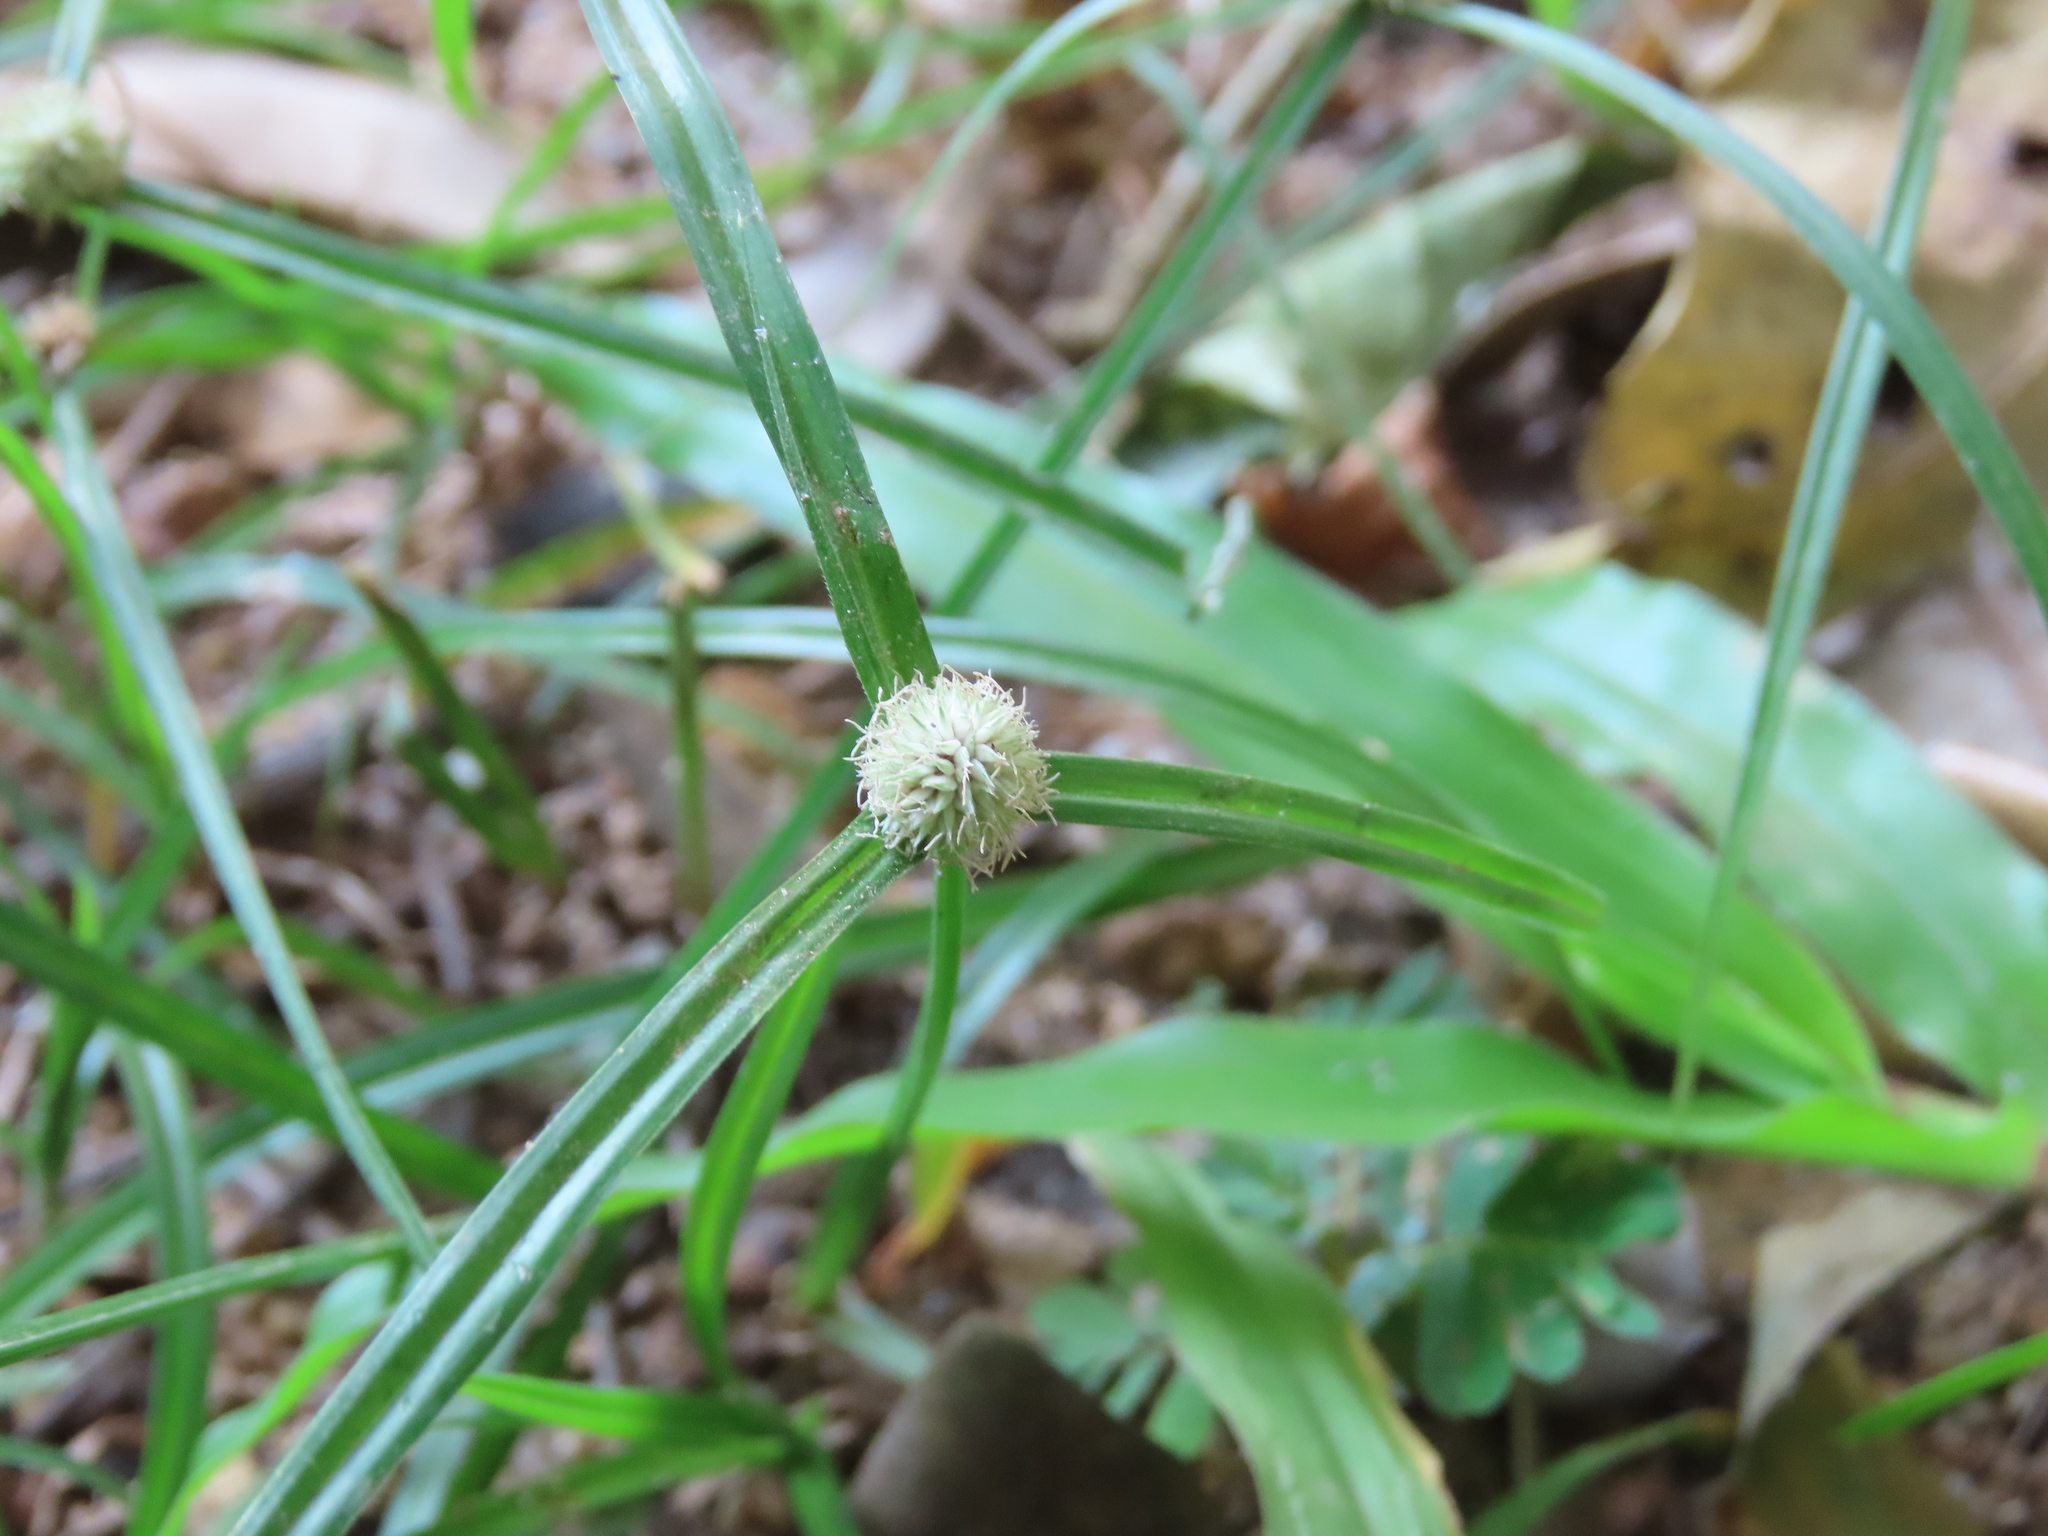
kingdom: Plantae
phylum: Tracheophyta
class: Liliopsida
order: Poales
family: Cyperaceae
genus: Cyperus
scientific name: Cyperus mindorensis
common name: Flatsedge
